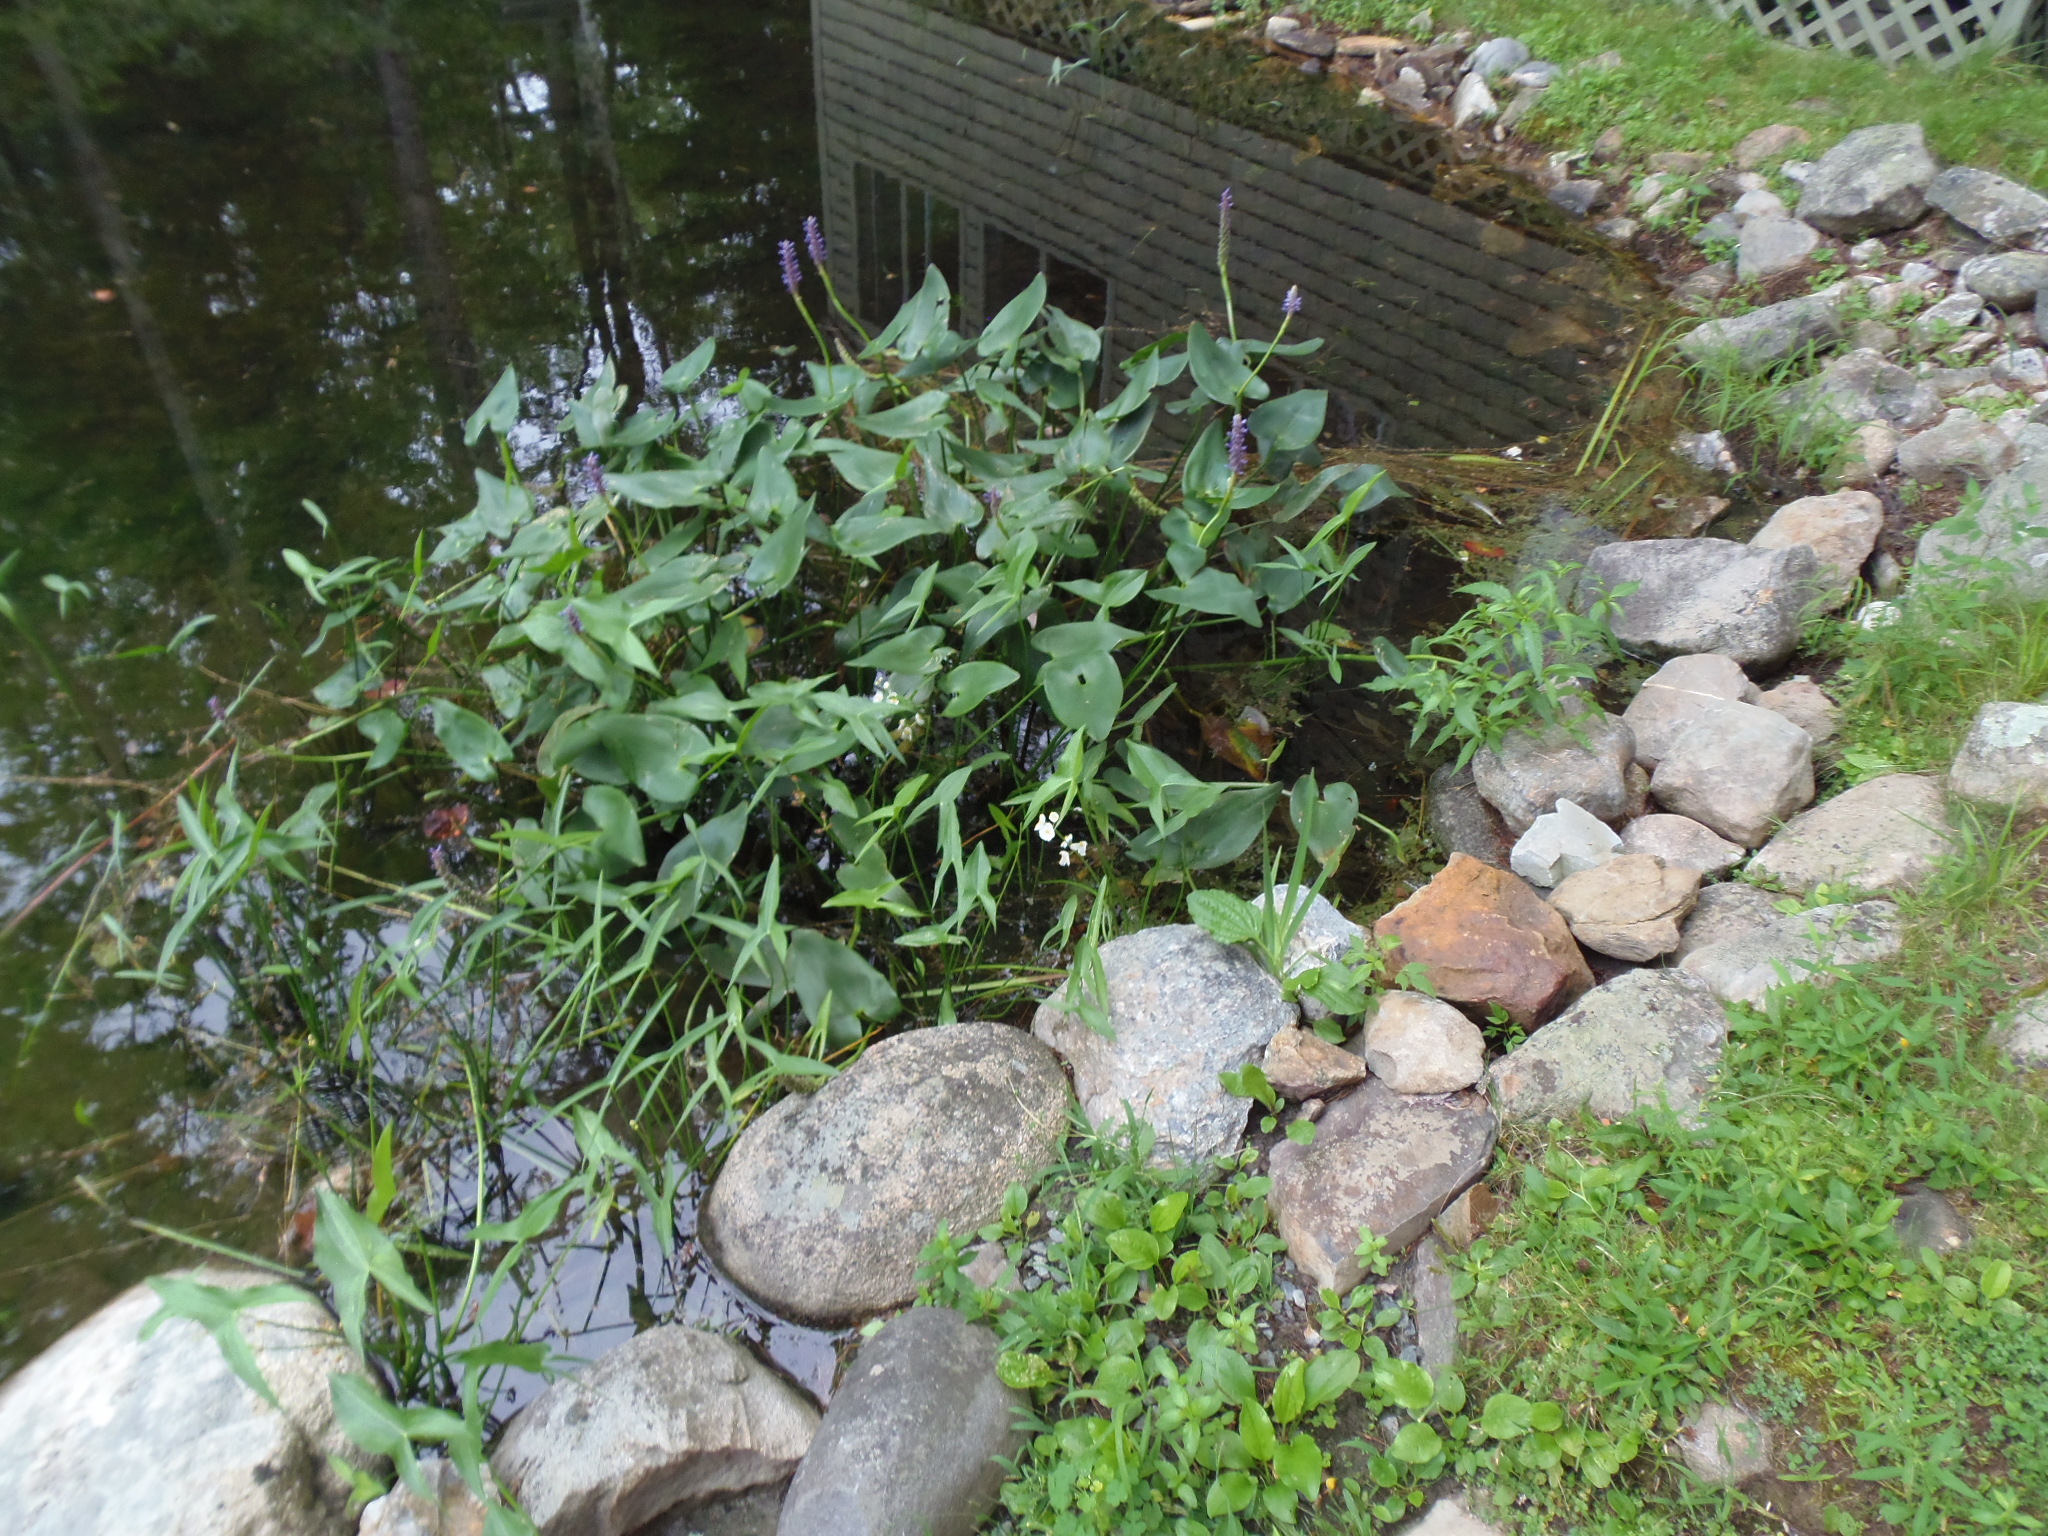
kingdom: Plantae
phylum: Tracheophyta
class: Liliopsida
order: Commelinales
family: Pontederiaceae
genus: Pontederia
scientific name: Pontederia cordata
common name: Pickerelweed
